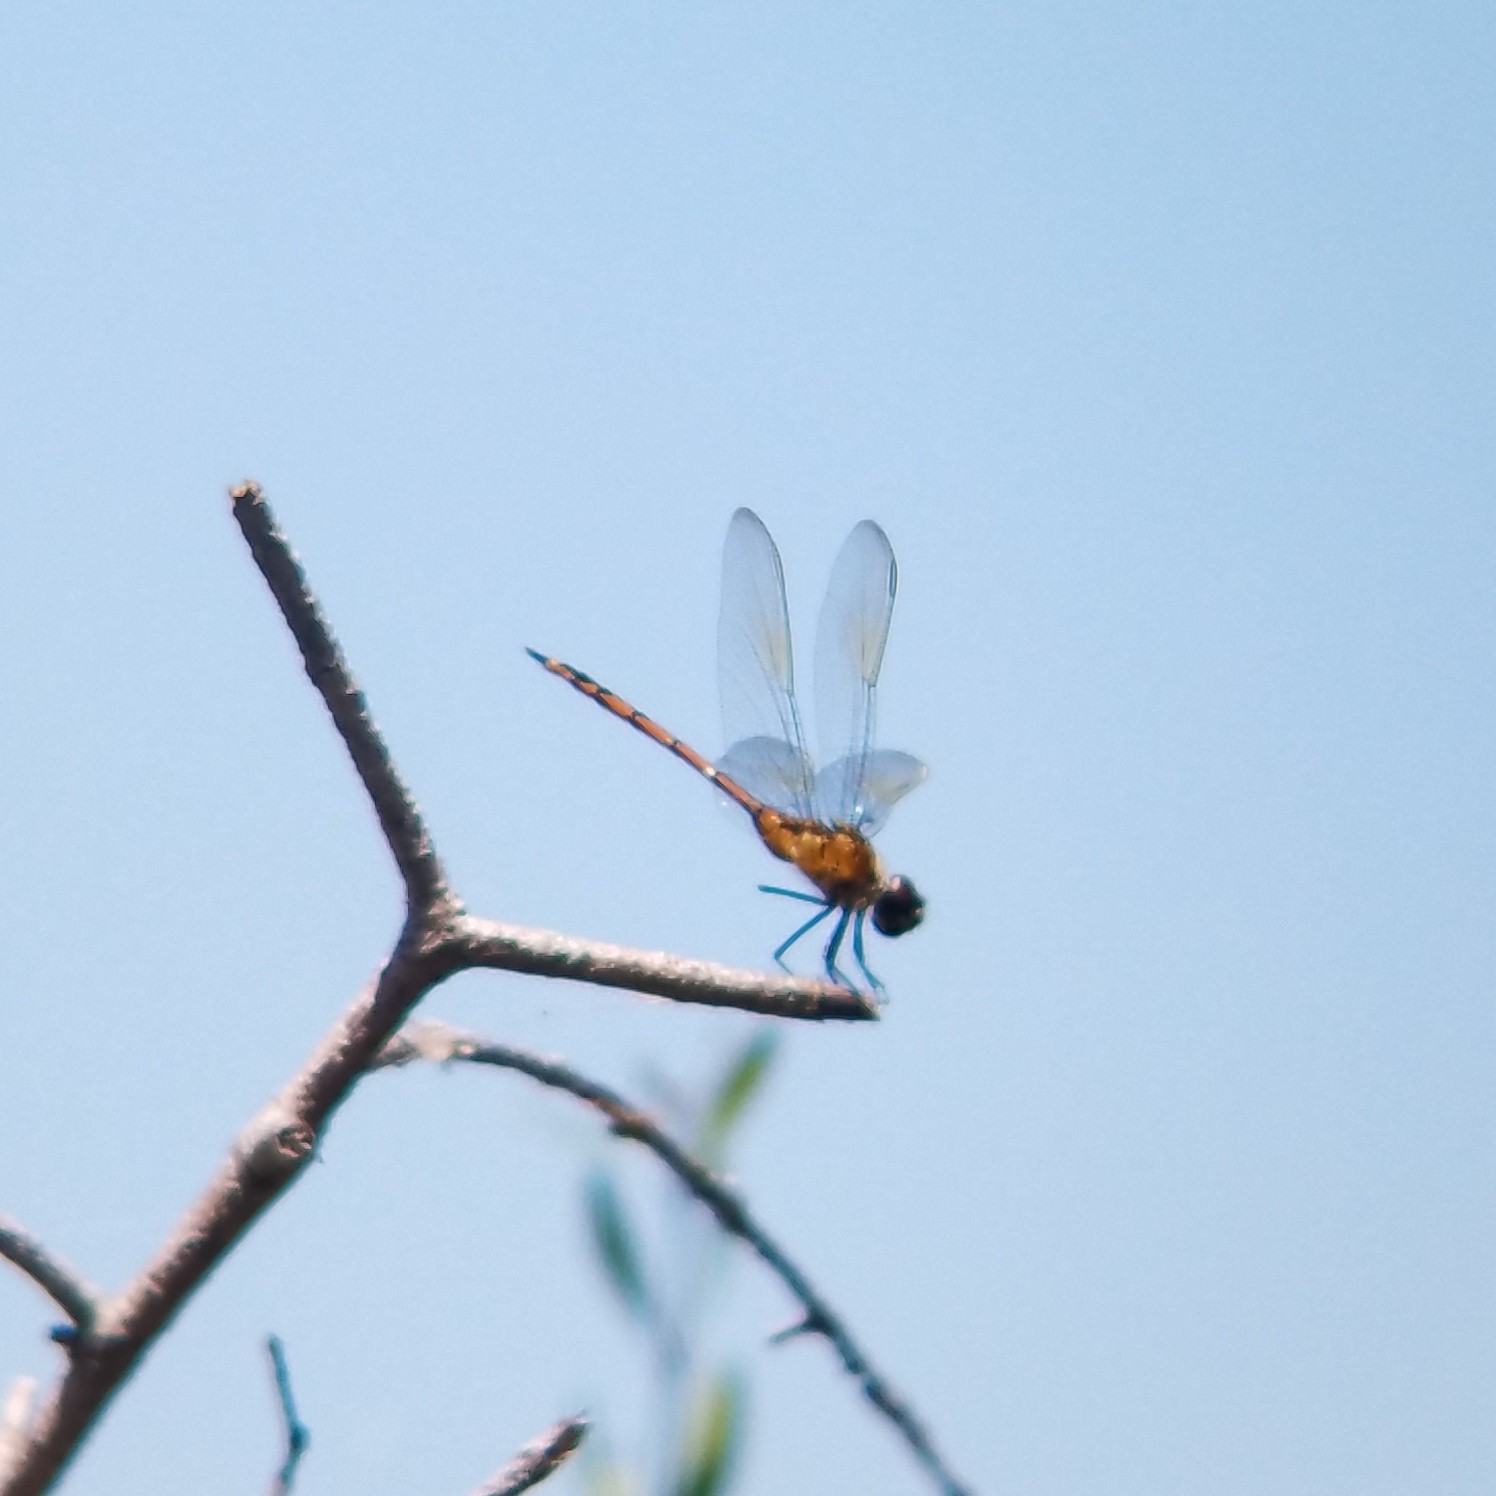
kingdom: Animalia
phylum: Arthropoda
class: Insecta
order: Odonata
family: Libellulidae
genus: Brachymesia
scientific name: Brachymesia gravida
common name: Four-spotted pennant
